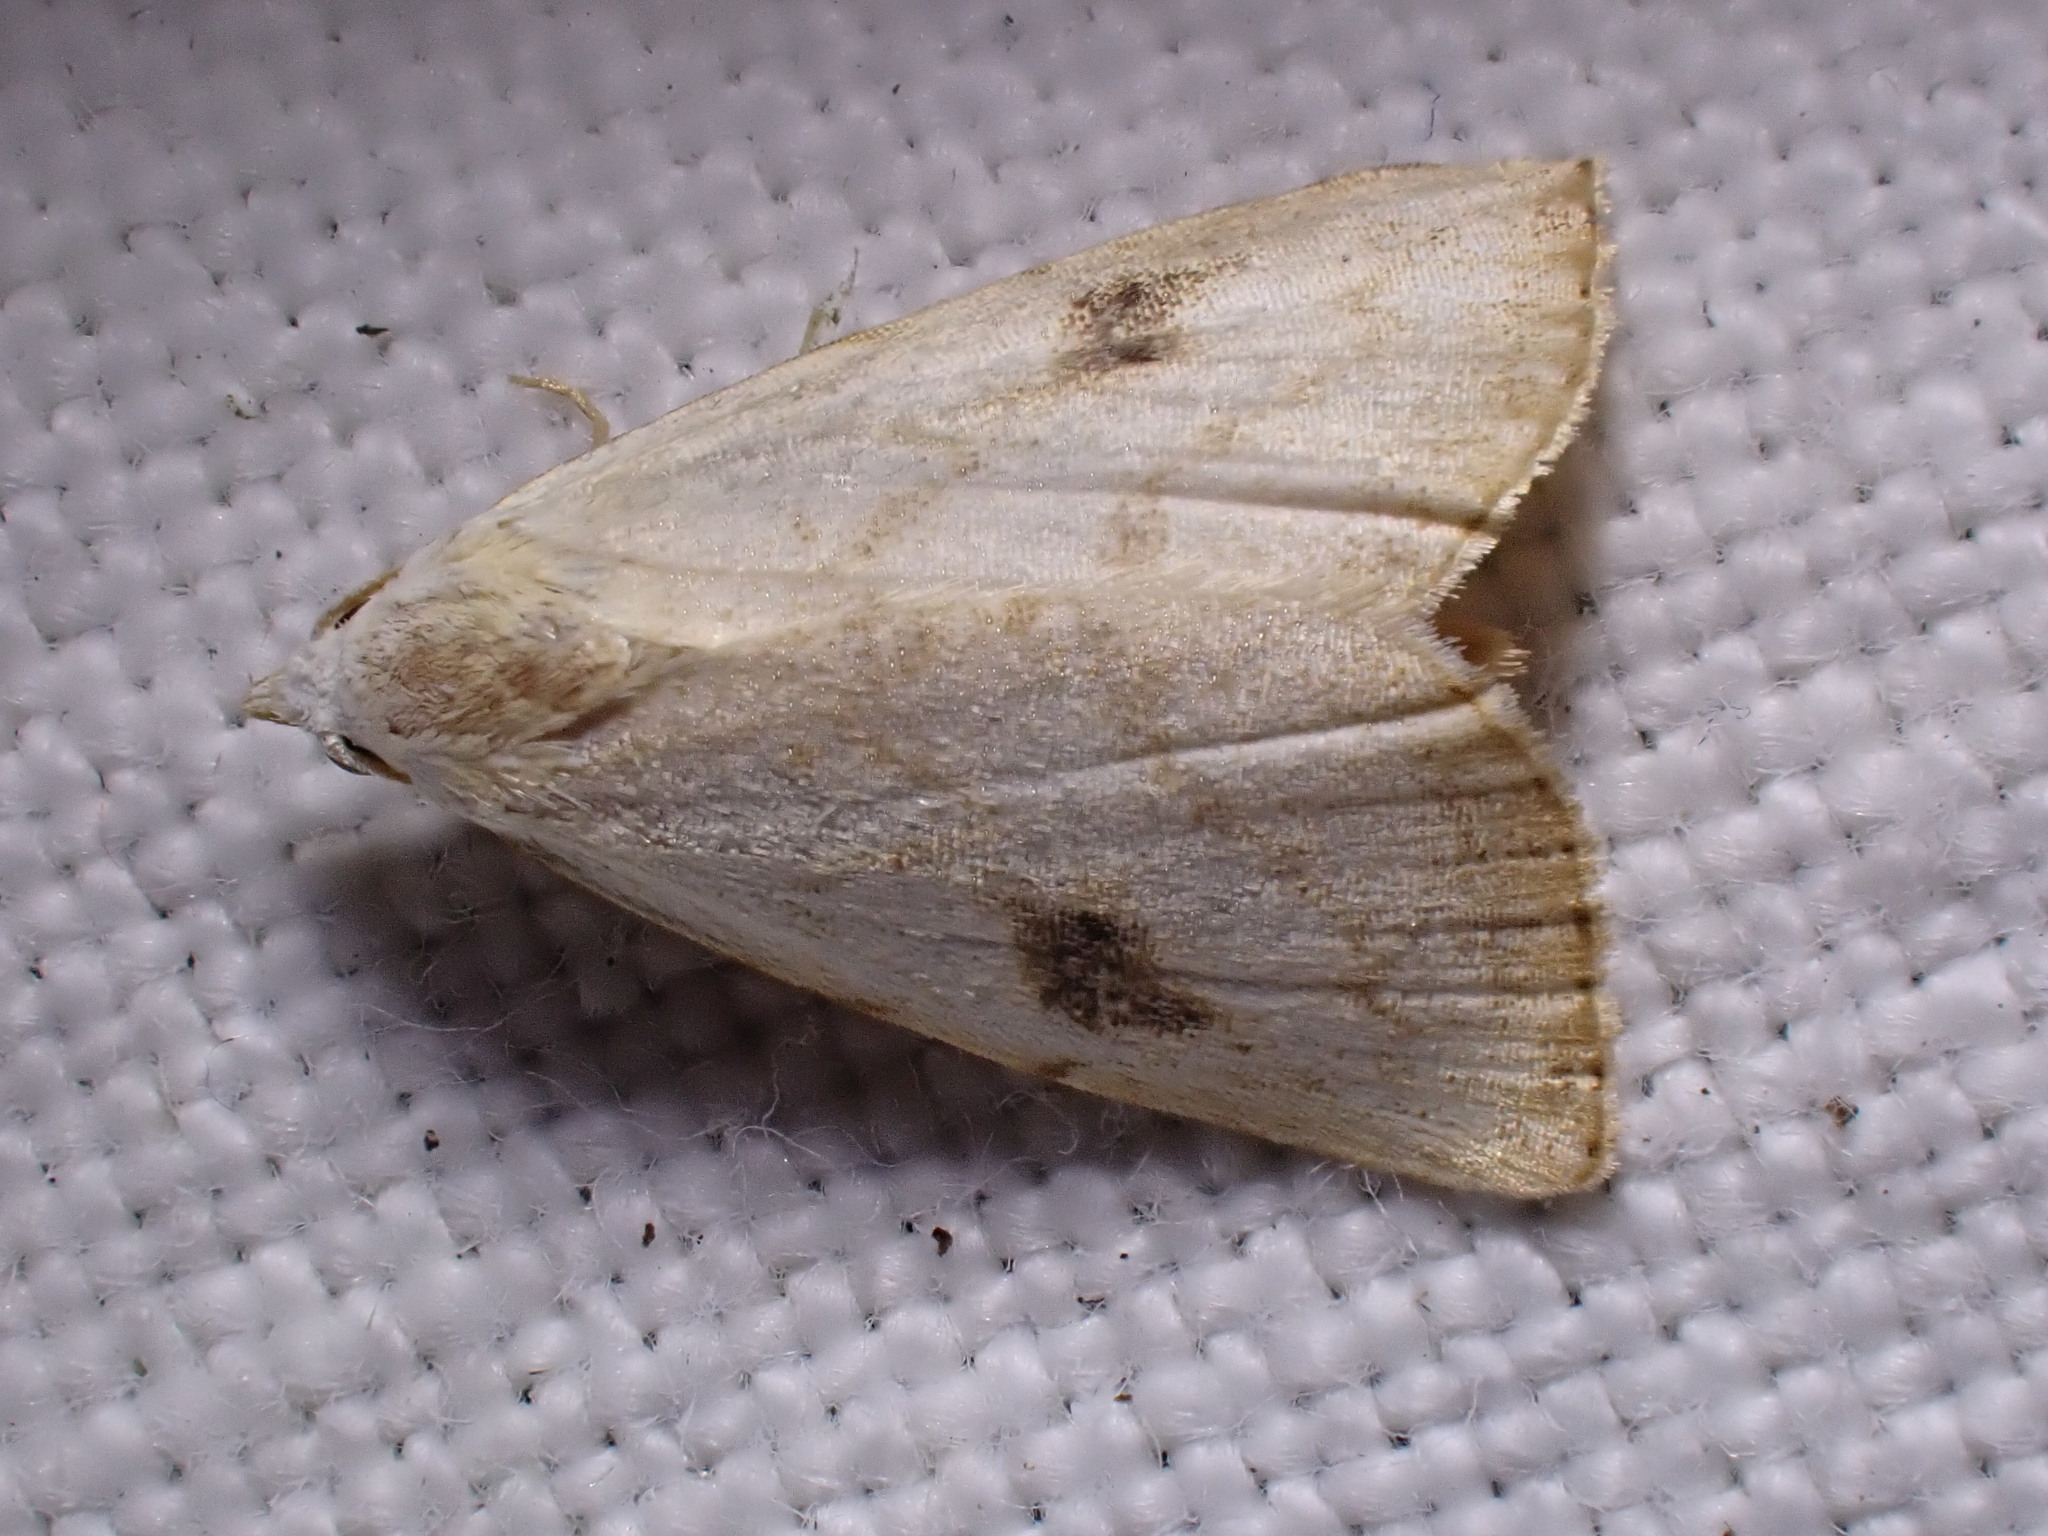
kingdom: Animalia
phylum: Arthropoda
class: Insecta
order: Lepidoptera
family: Erebidae
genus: Rivula
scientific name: Rivula sericealis
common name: Straw dot
